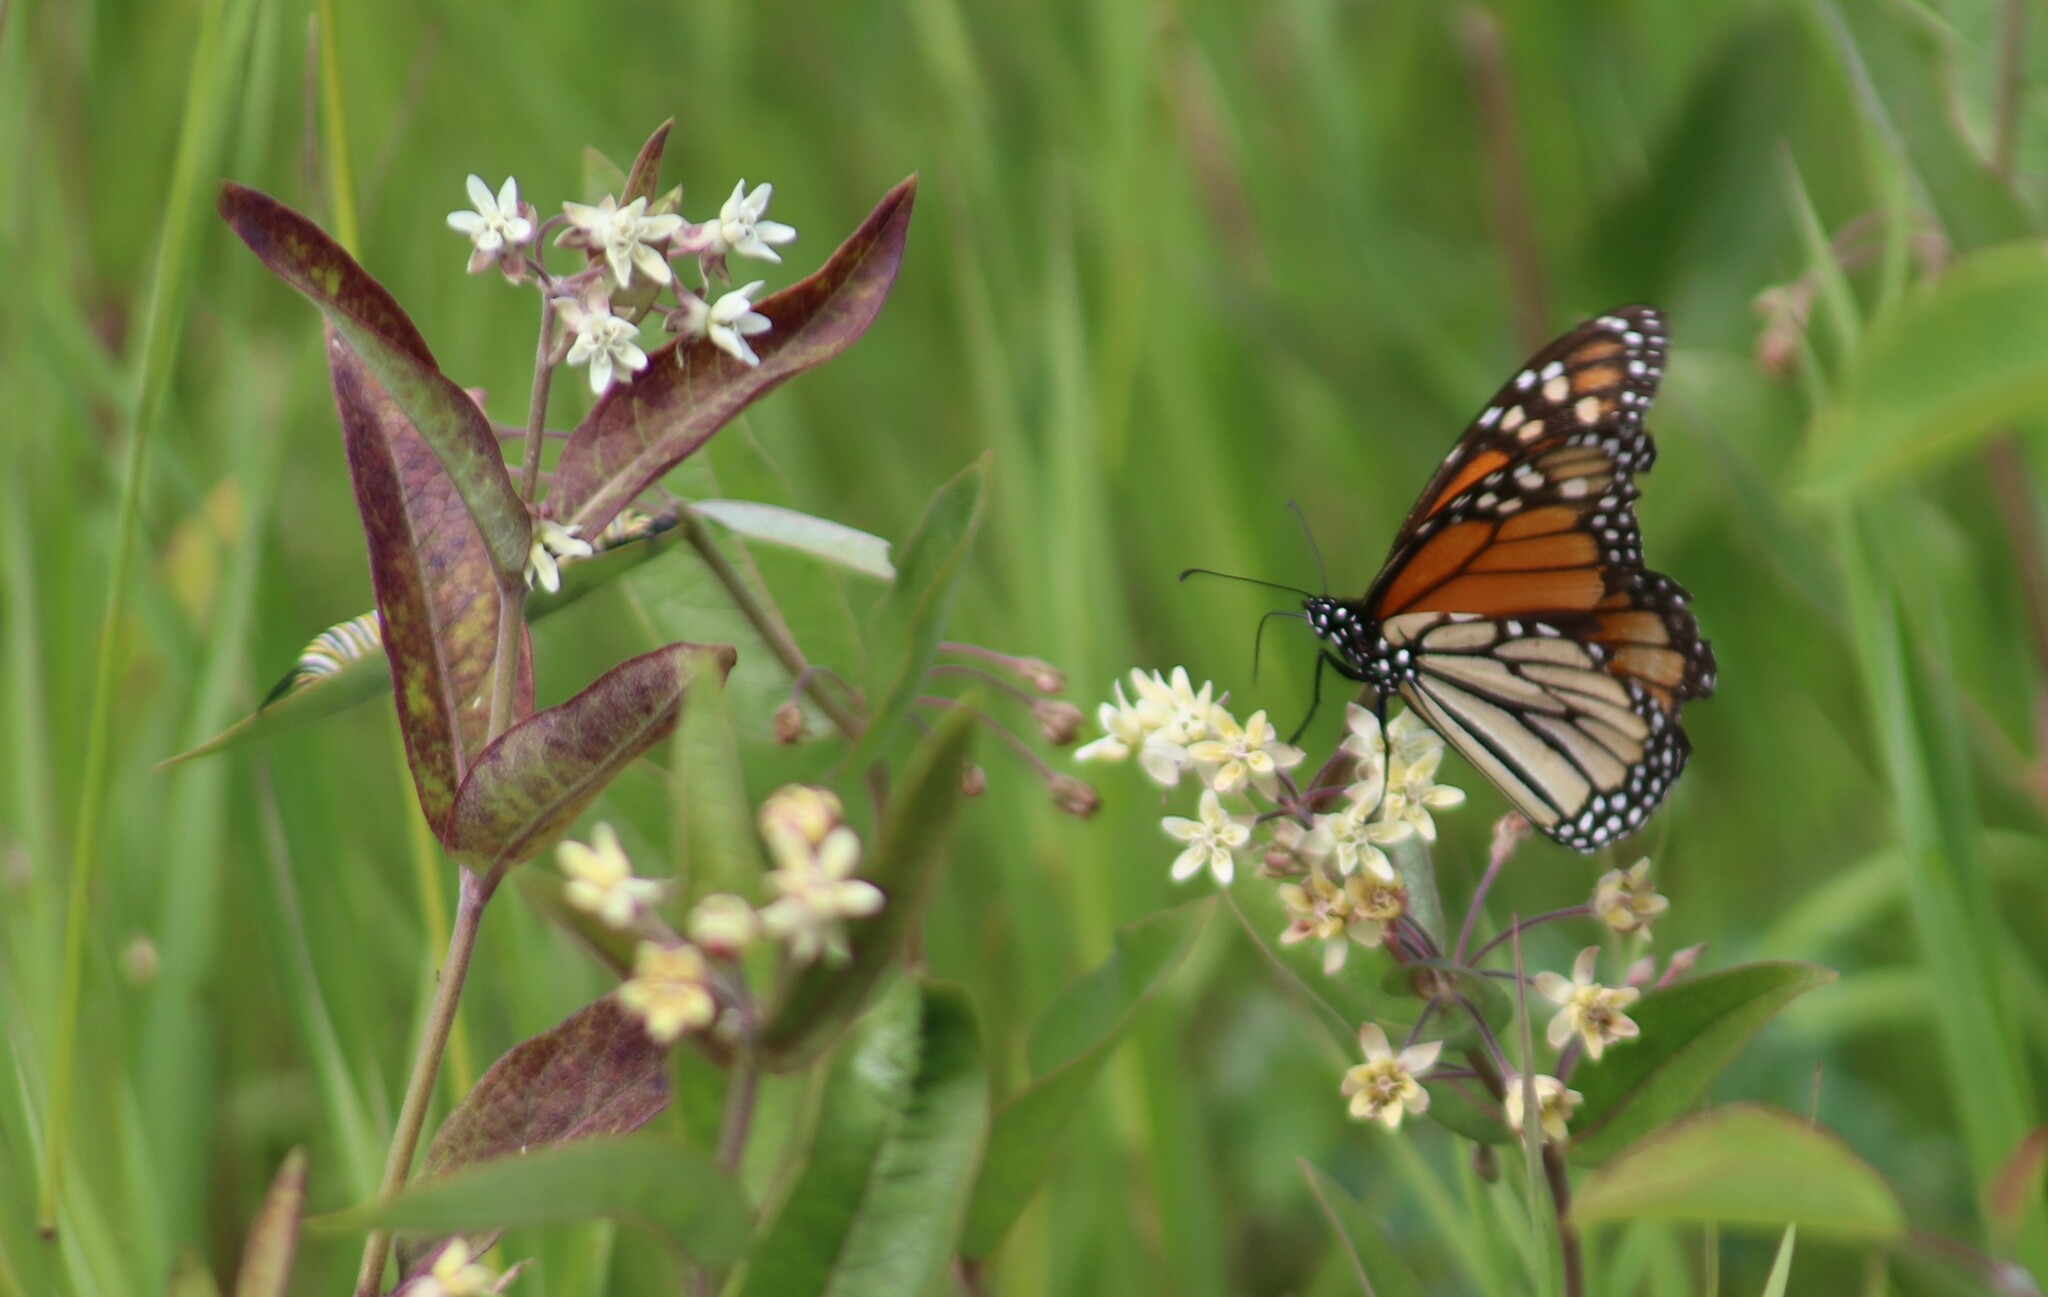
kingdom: Animalia
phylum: Arthropoda
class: Insecta
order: Lepidoptera
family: Nymphalidae
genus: Danaus
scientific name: Danaus plexippus
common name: Monarch
